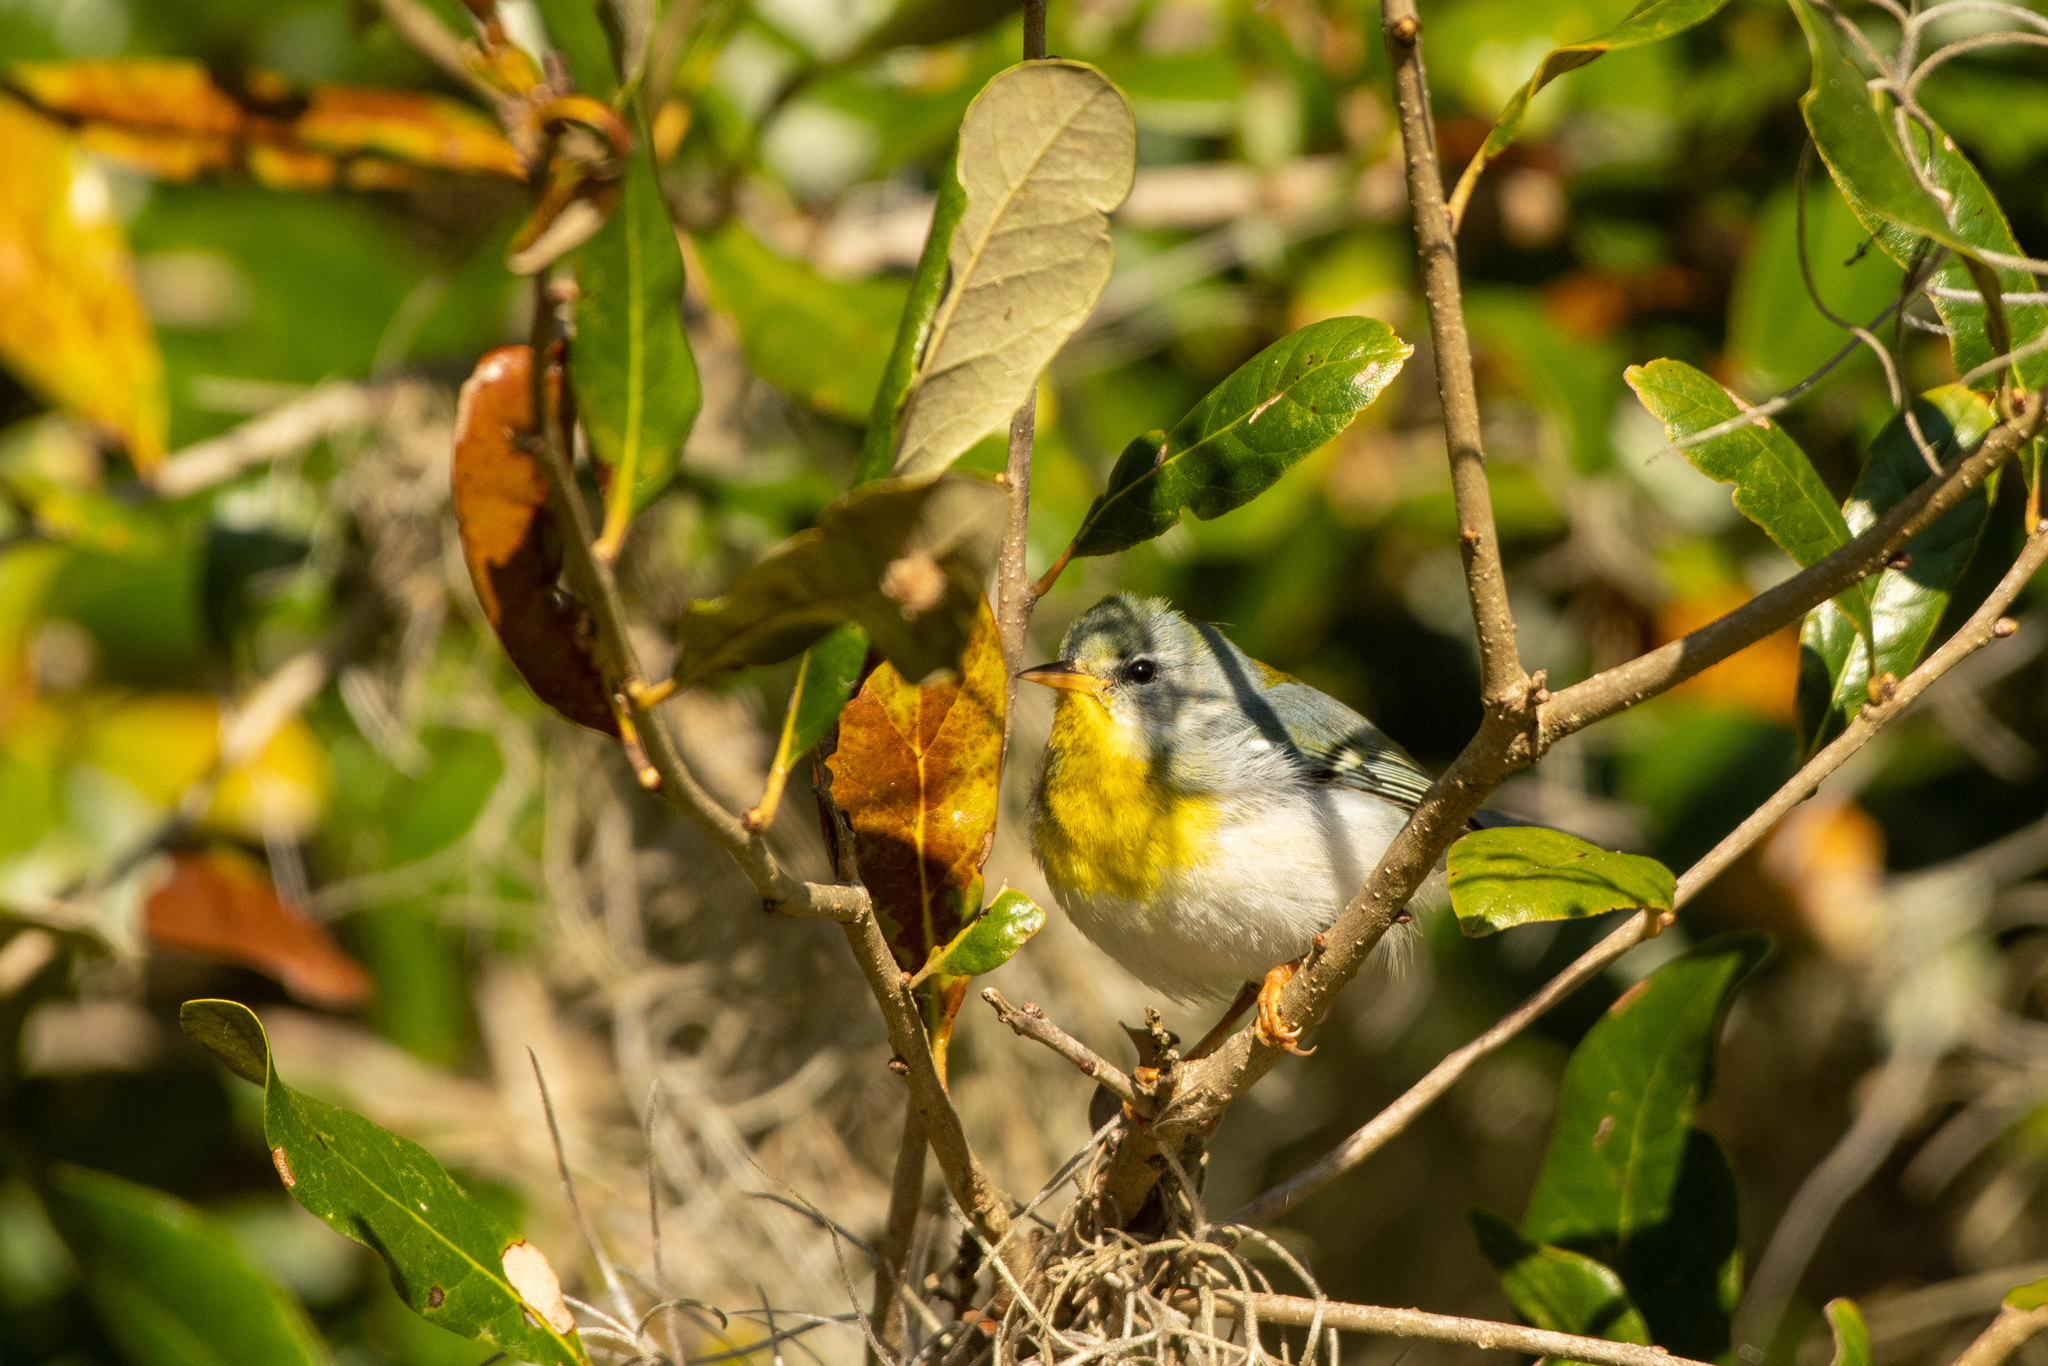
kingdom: Animalia
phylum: Chordata
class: Aves
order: Passeriformes
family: Parulidae
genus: Setophaga
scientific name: Setophaga americana
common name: Northern parula
